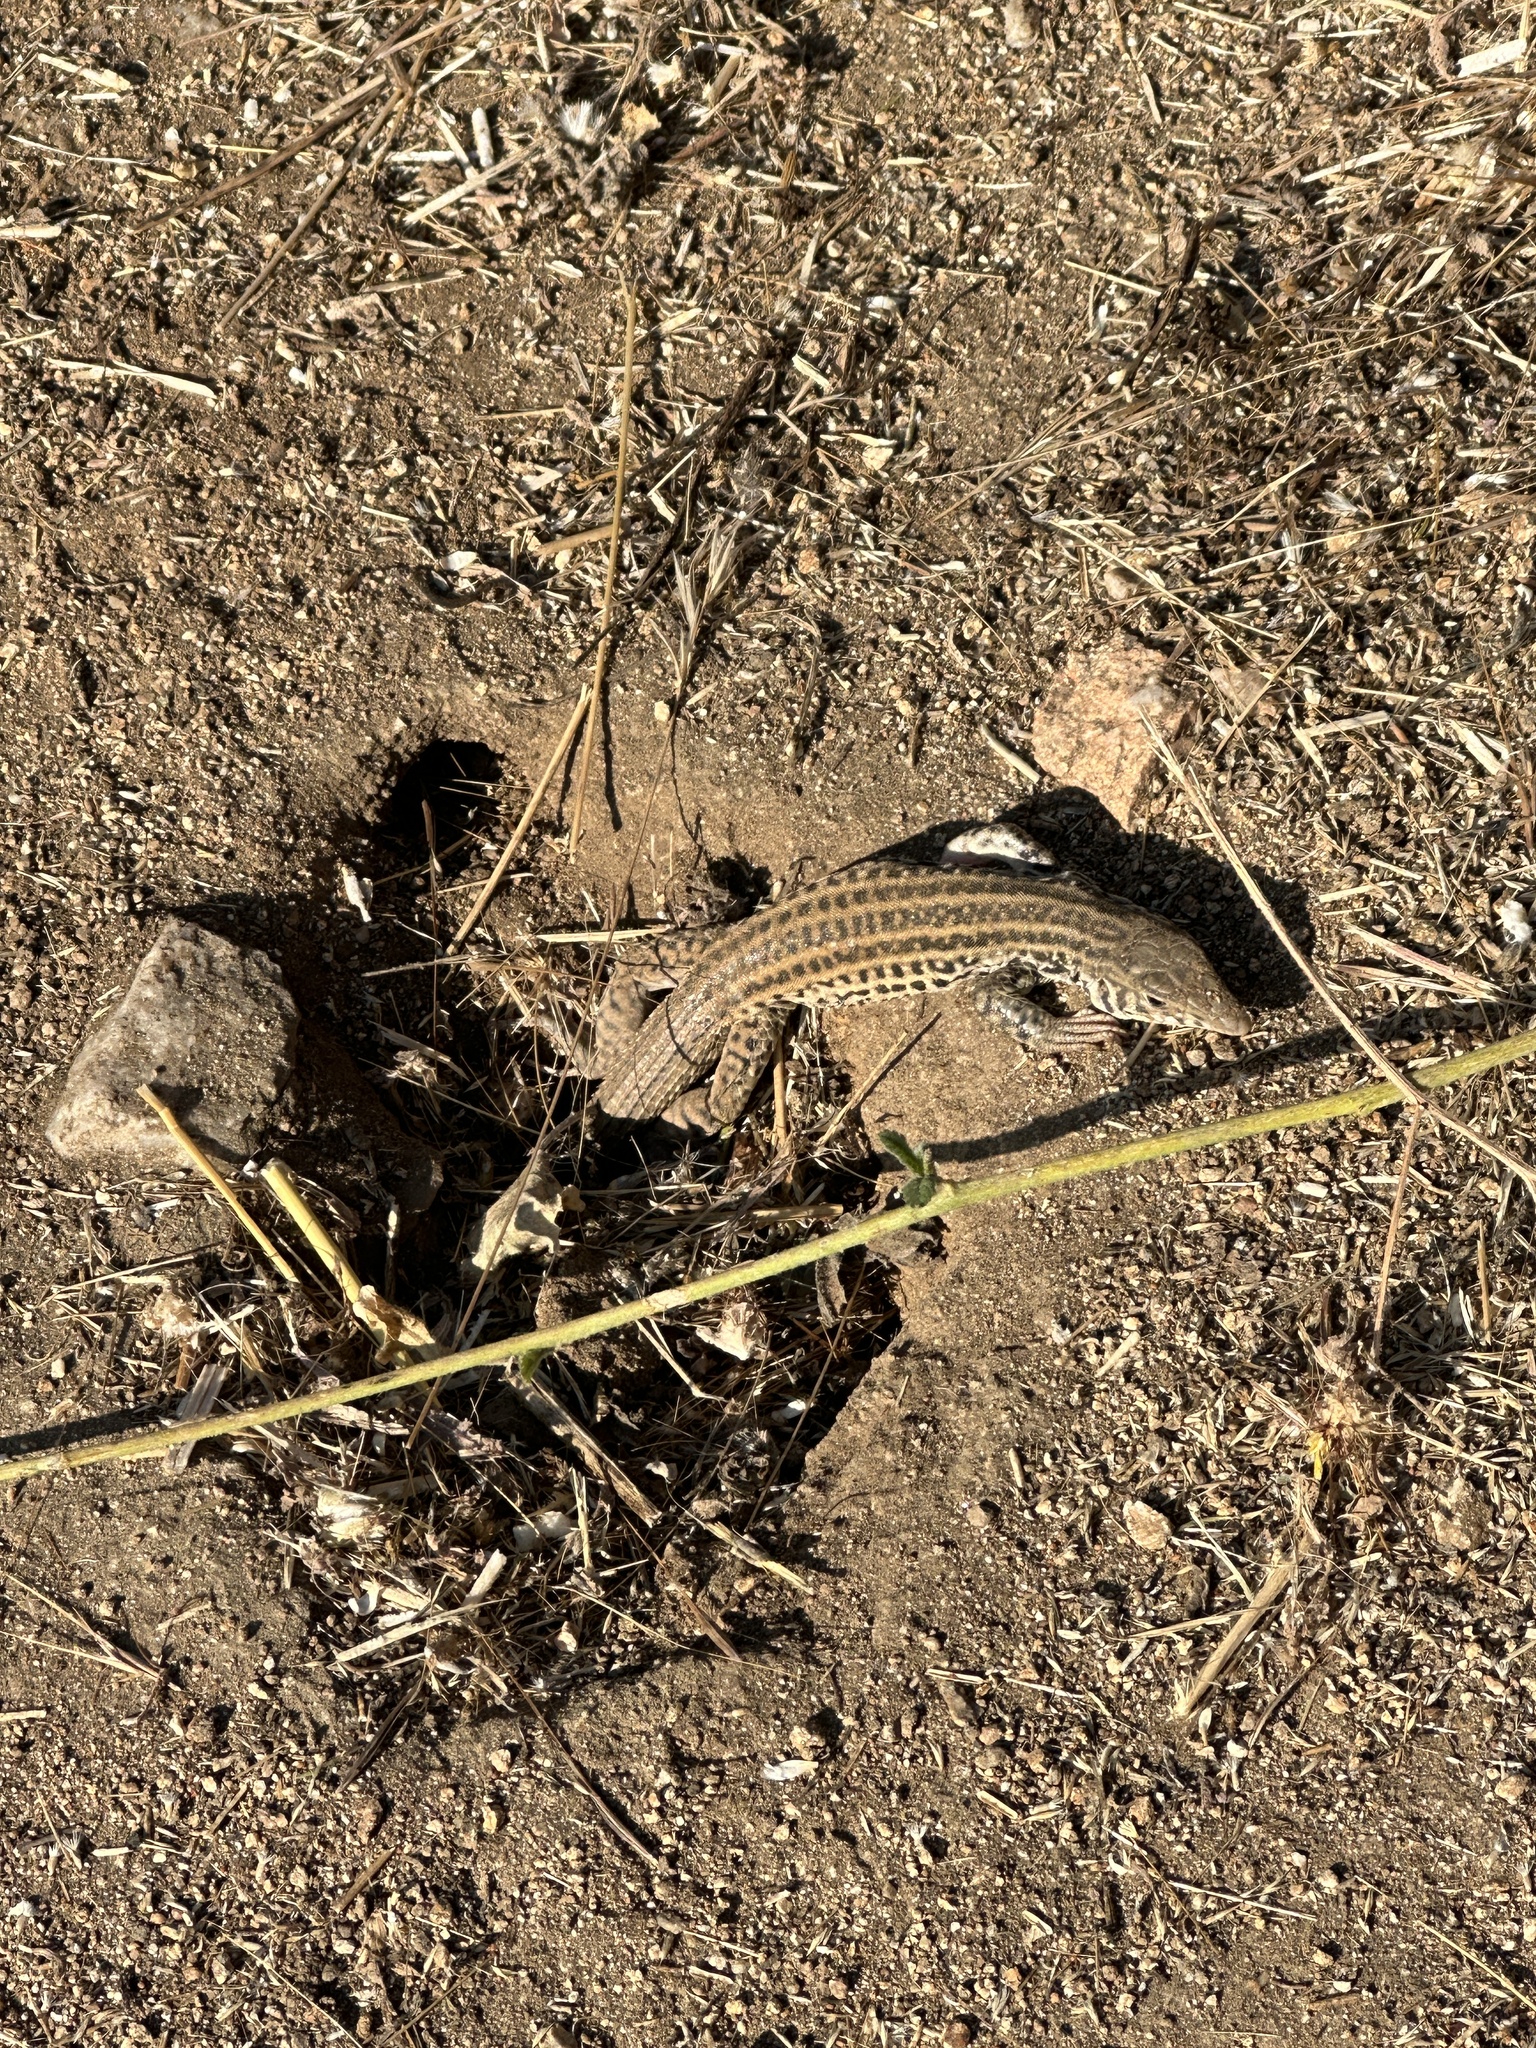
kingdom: Animalia
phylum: Chordata
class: Squamata
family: Teiidae
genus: Aspidoscelis
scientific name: Aspidoscelis tigris
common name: Tiger whiptail
